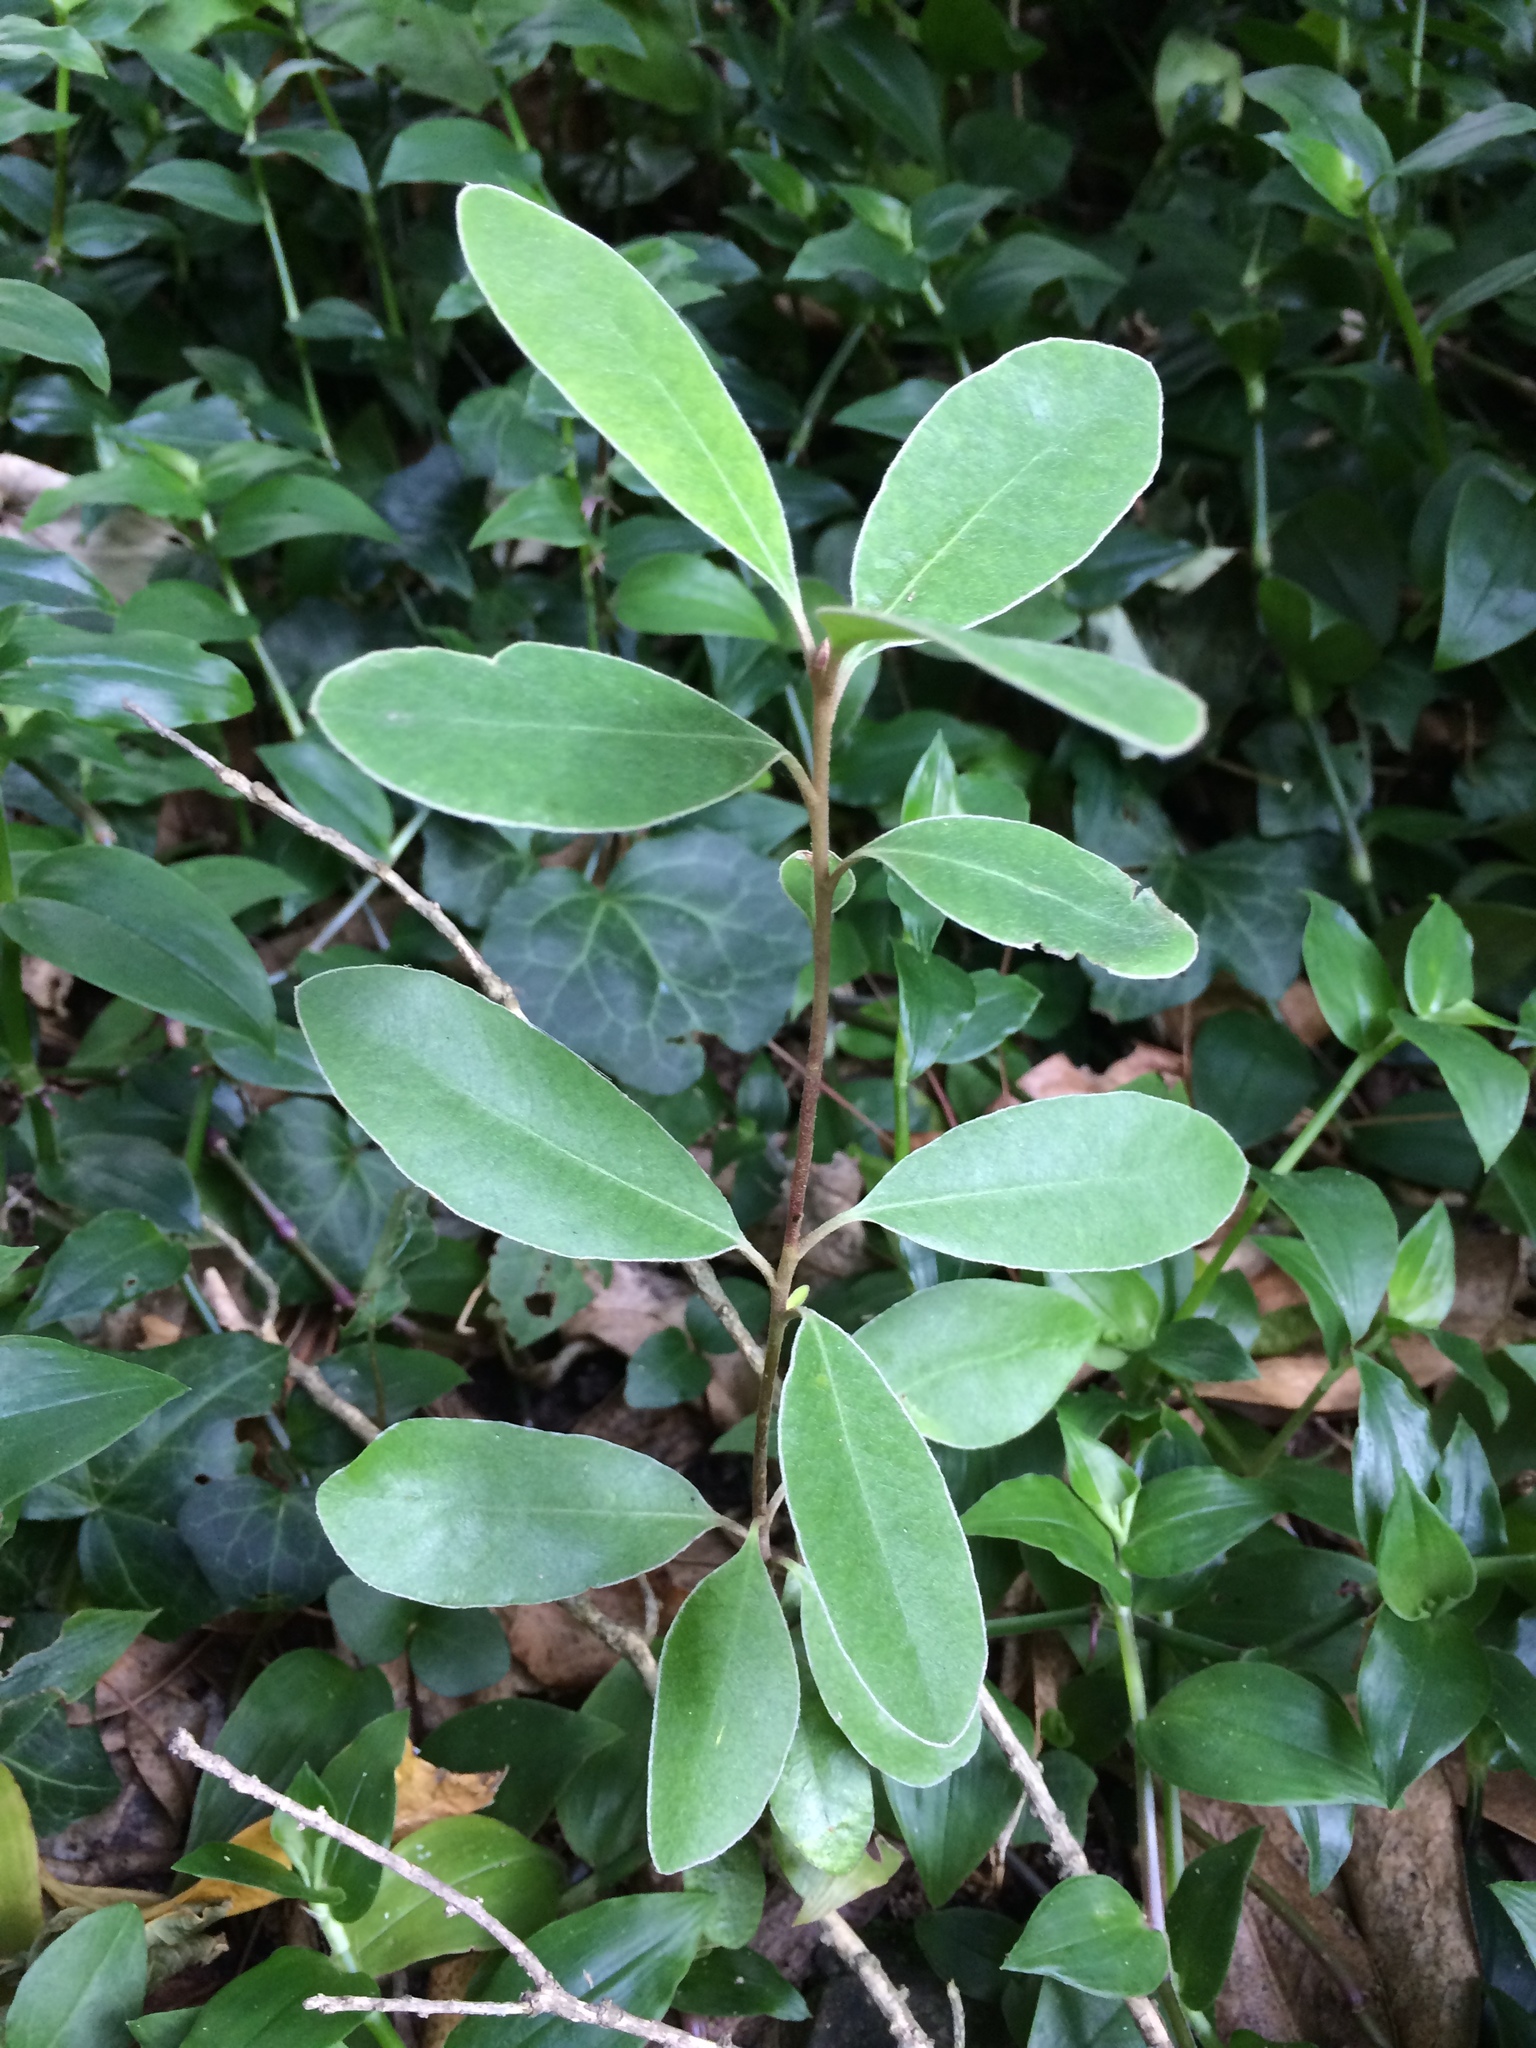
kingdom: Plantae
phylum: Tracheophyta
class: Magnoliopsida
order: Apiales
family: Pittosporaceae
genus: Pittosporum
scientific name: Pittosporum ralphii
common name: Ralph's desertwillow
